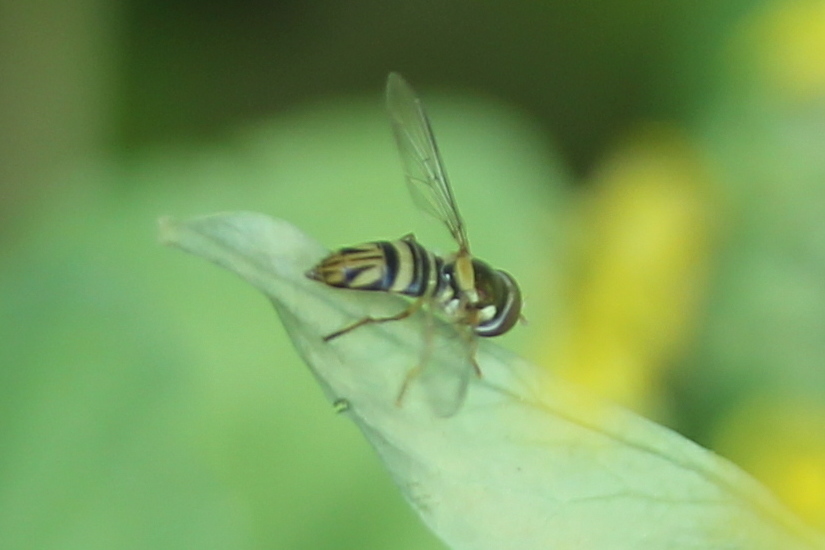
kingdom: Animalia
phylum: Arthropoda
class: Insecta
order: Diptera
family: Syrphidae
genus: Allograpta
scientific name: Allograpta obliqua
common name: Common oblique syrphid
